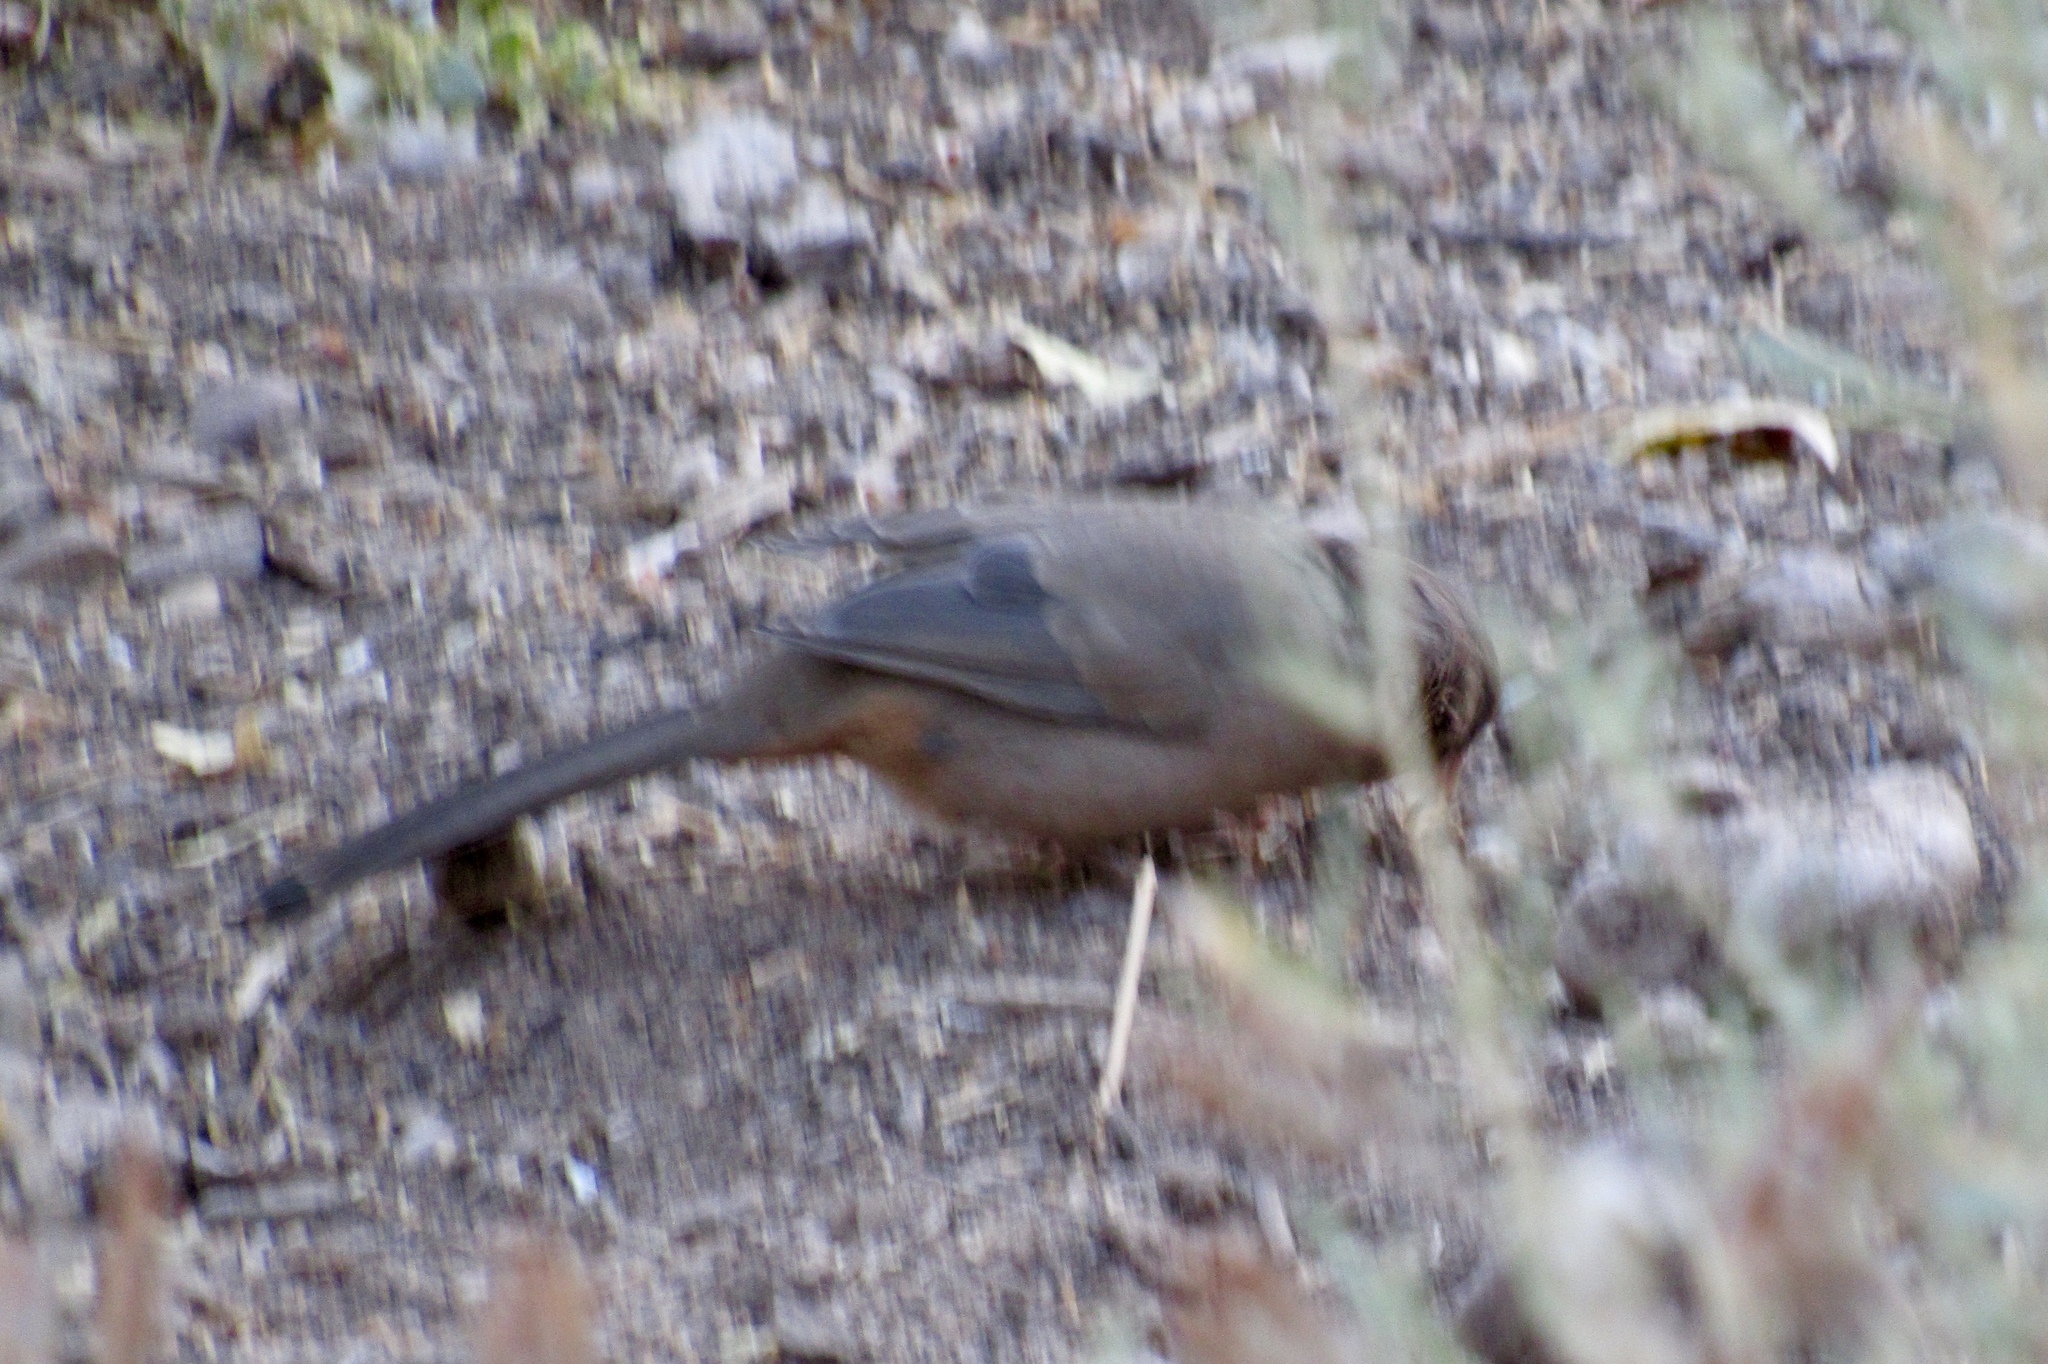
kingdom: Animalia
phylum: Chordata
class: Aves
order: Passeriformes
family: Passerellidae
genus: Melozone
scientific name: Melozone aberti
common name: Abert's towhee
